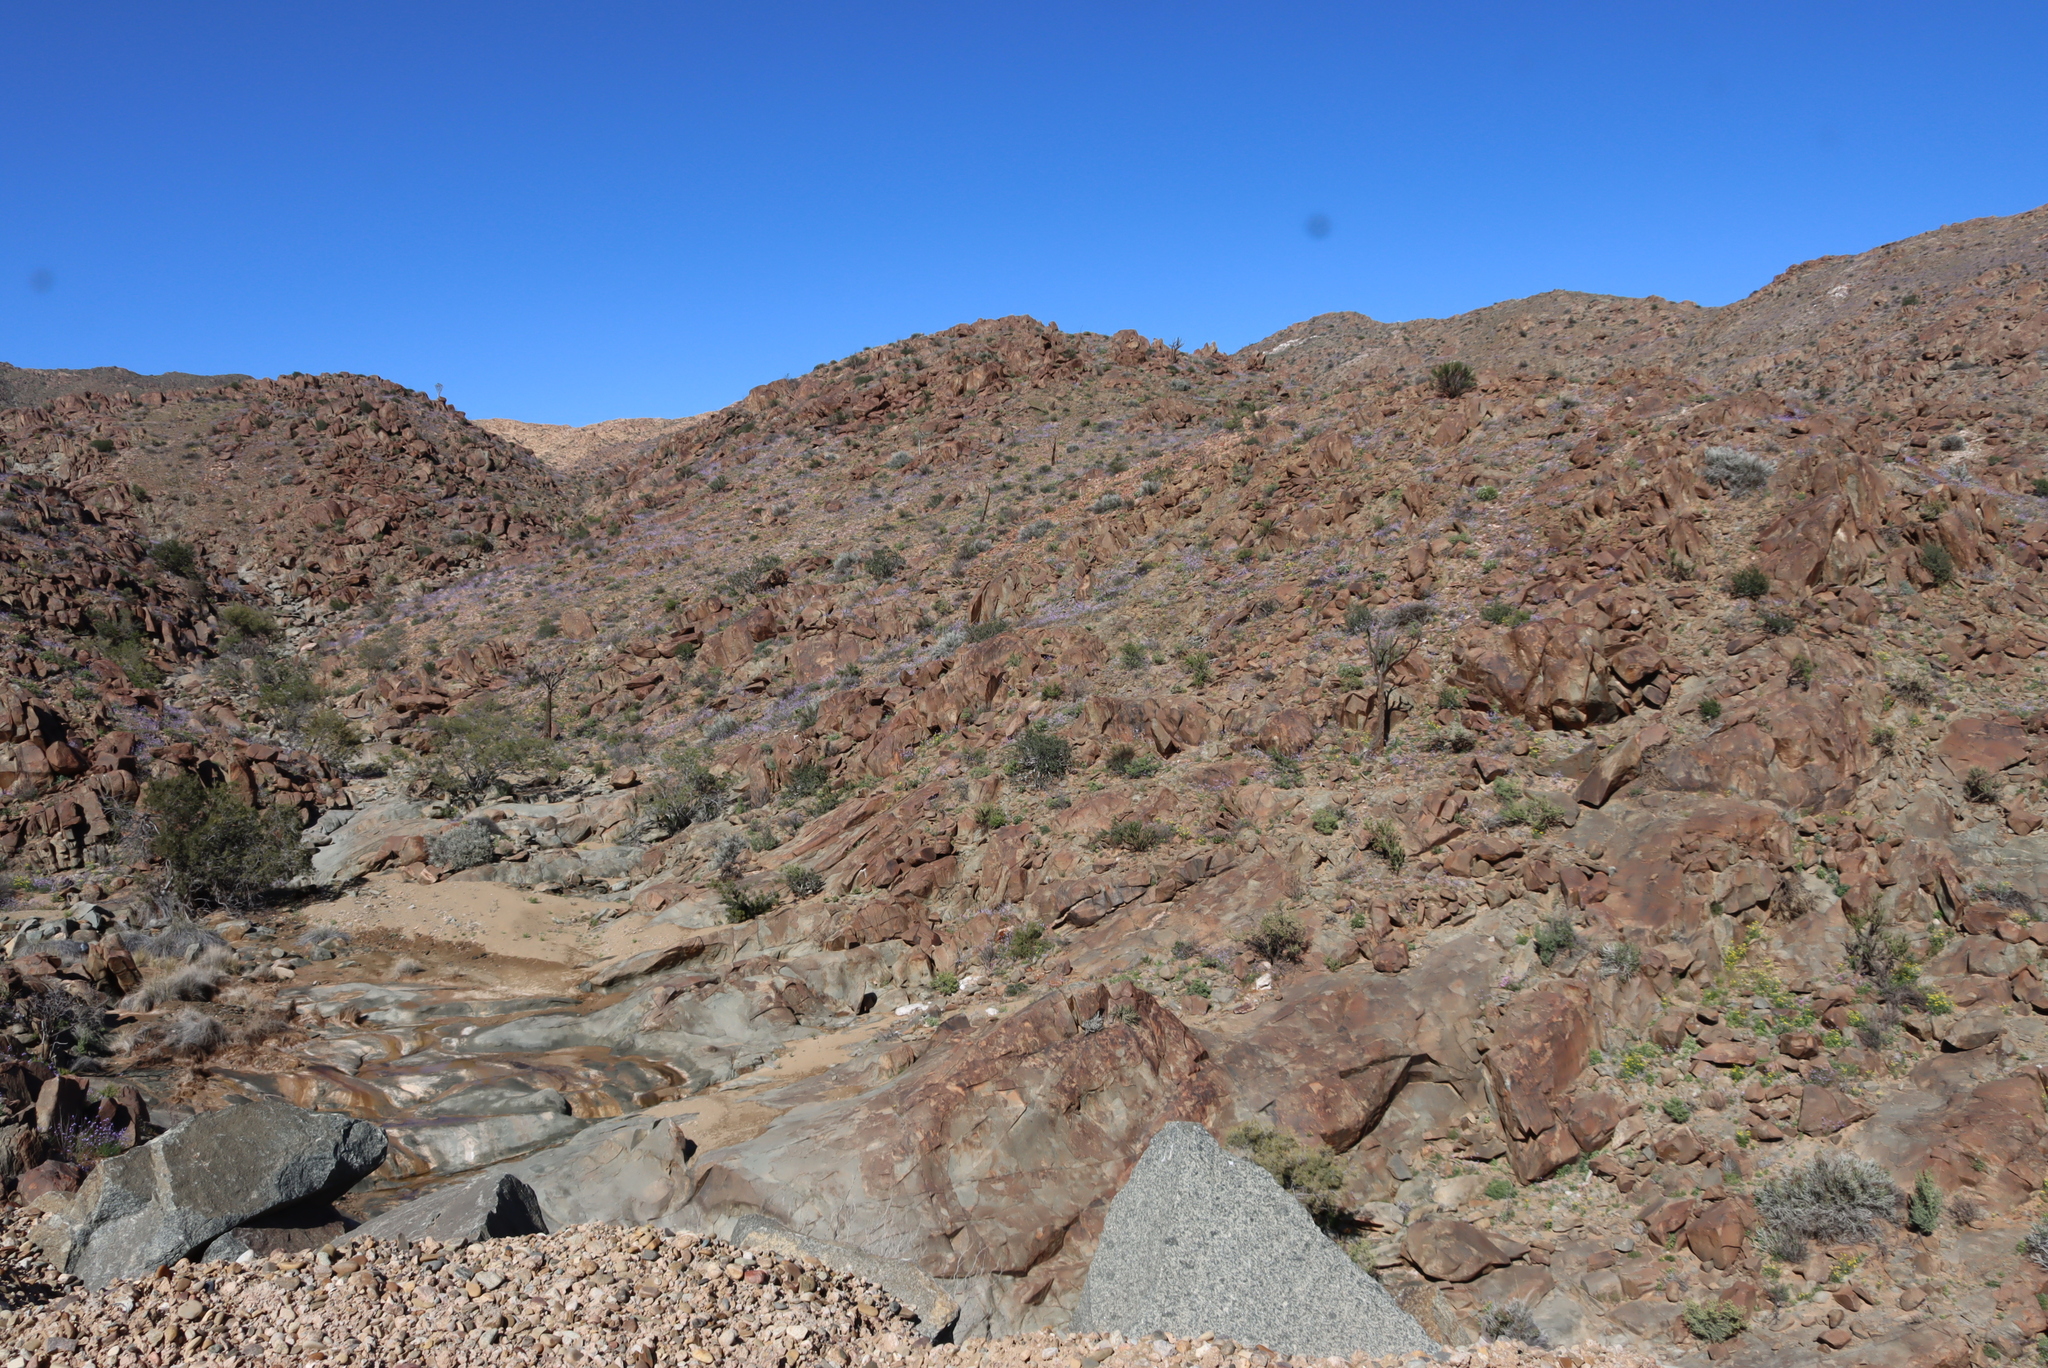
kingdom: Plantae
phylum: Tracheophyta
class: Liliopsida
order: Asparagales
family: Asphodelaceae
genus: Aloidendron
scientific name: Aloidendron dichotomum
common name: Quiver tree
